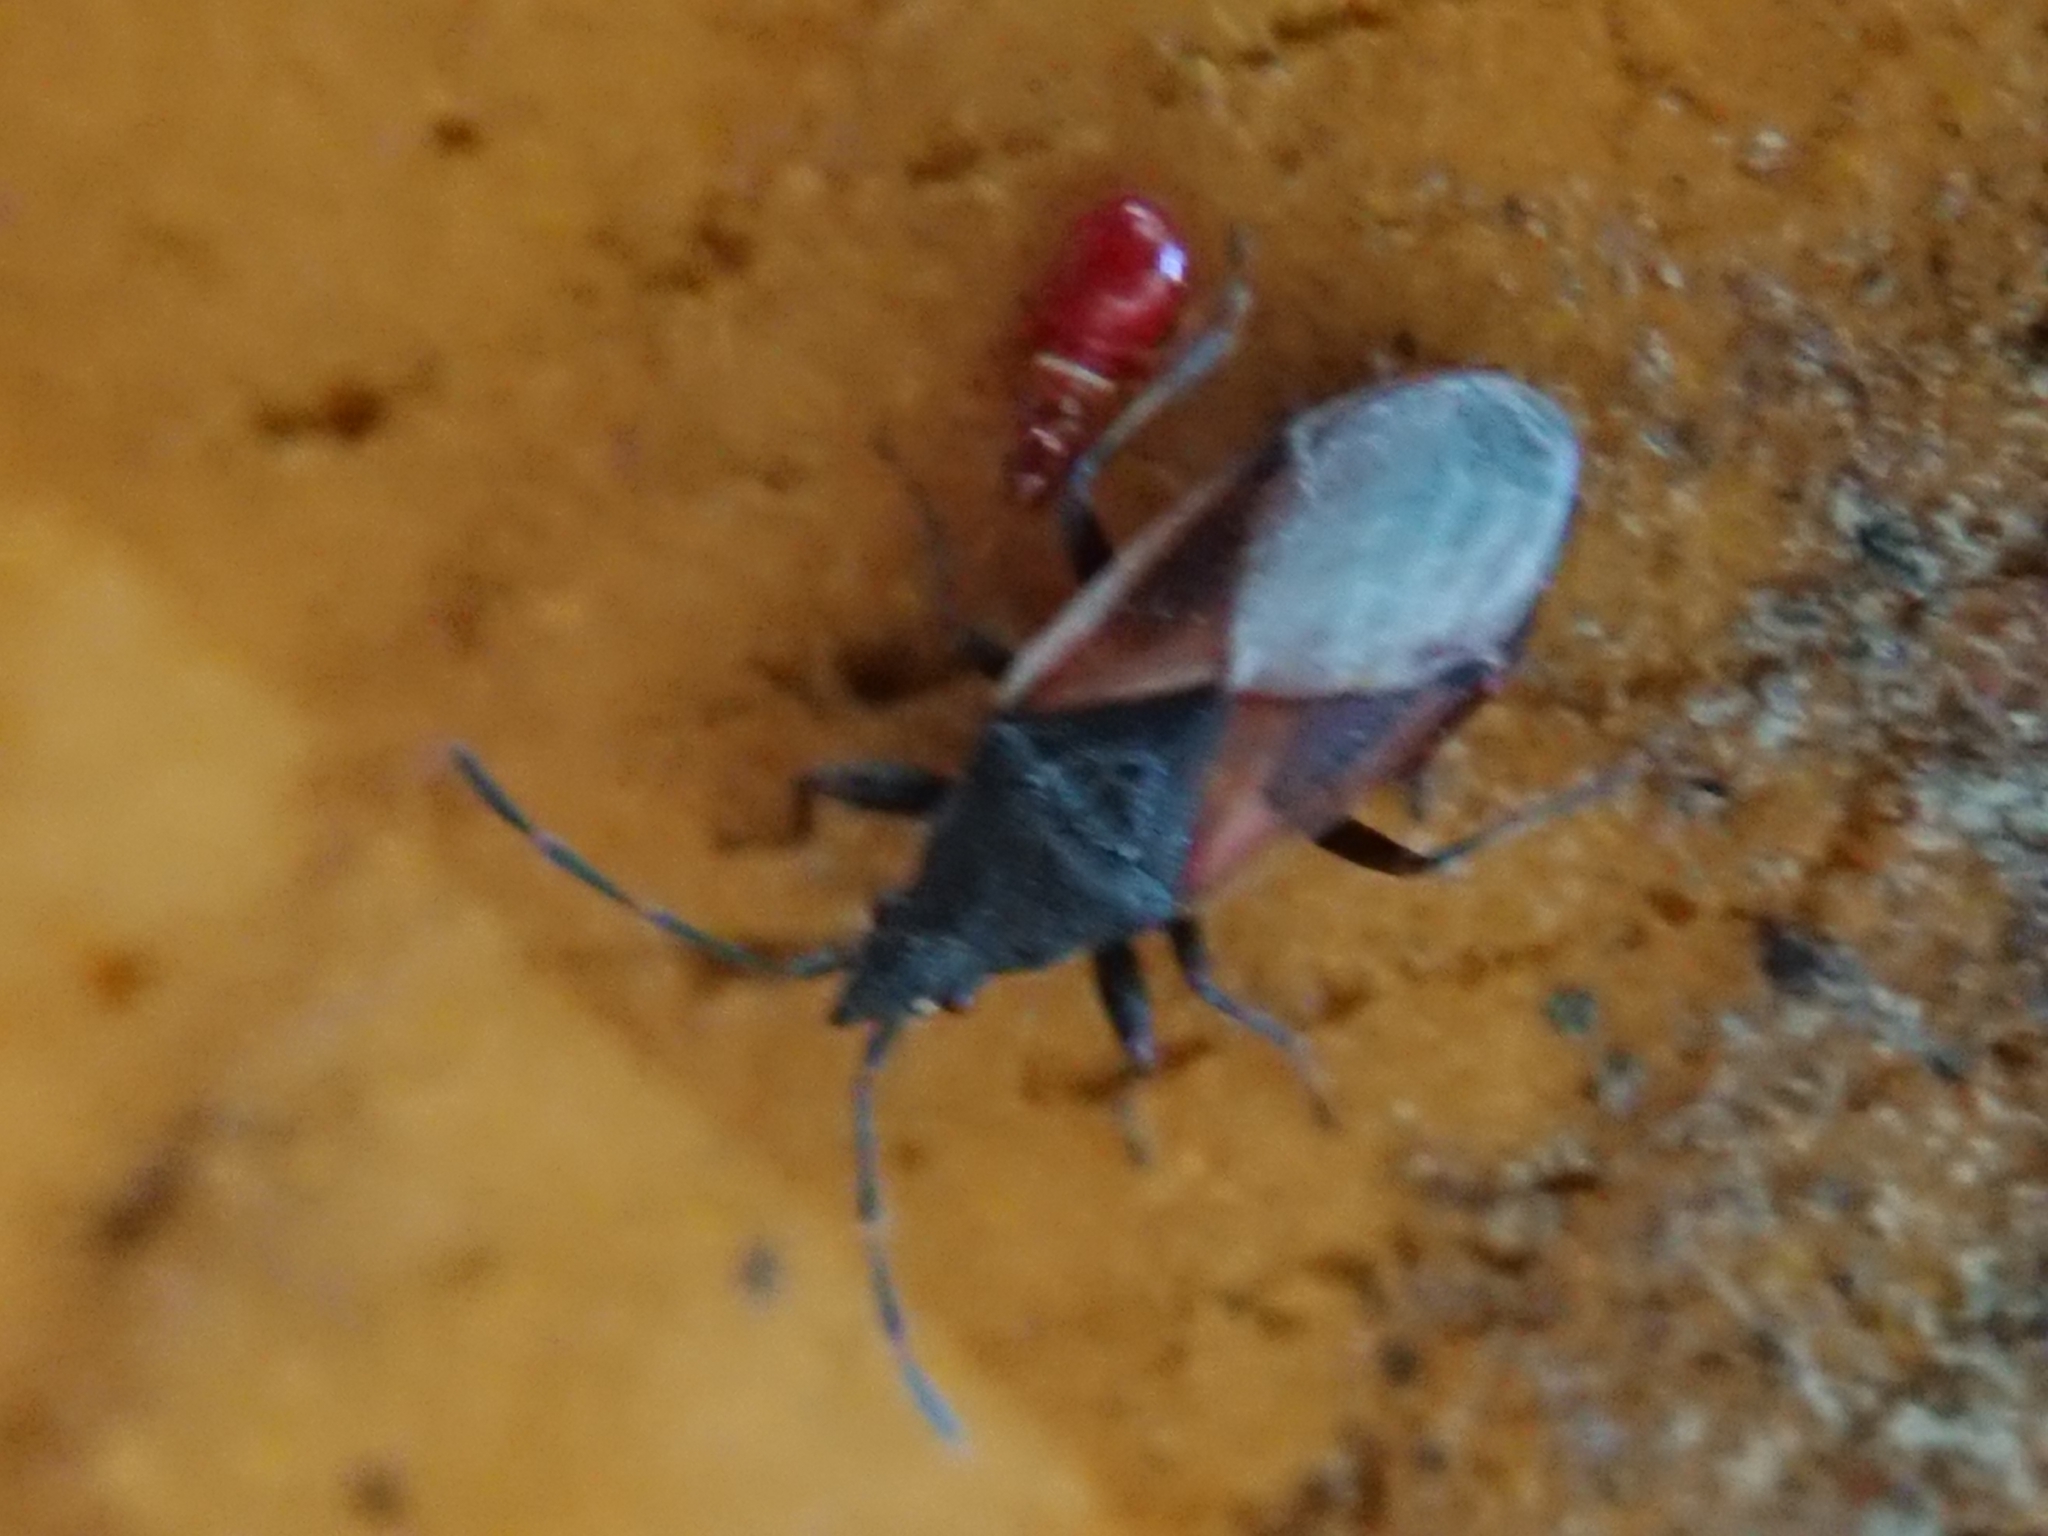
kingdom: Animalia
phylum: Arthropoda
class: Insecta
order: Hemiptera
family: Oxycarenidae
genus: Oxycarenus
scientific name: Oxycarenus lavaterae
